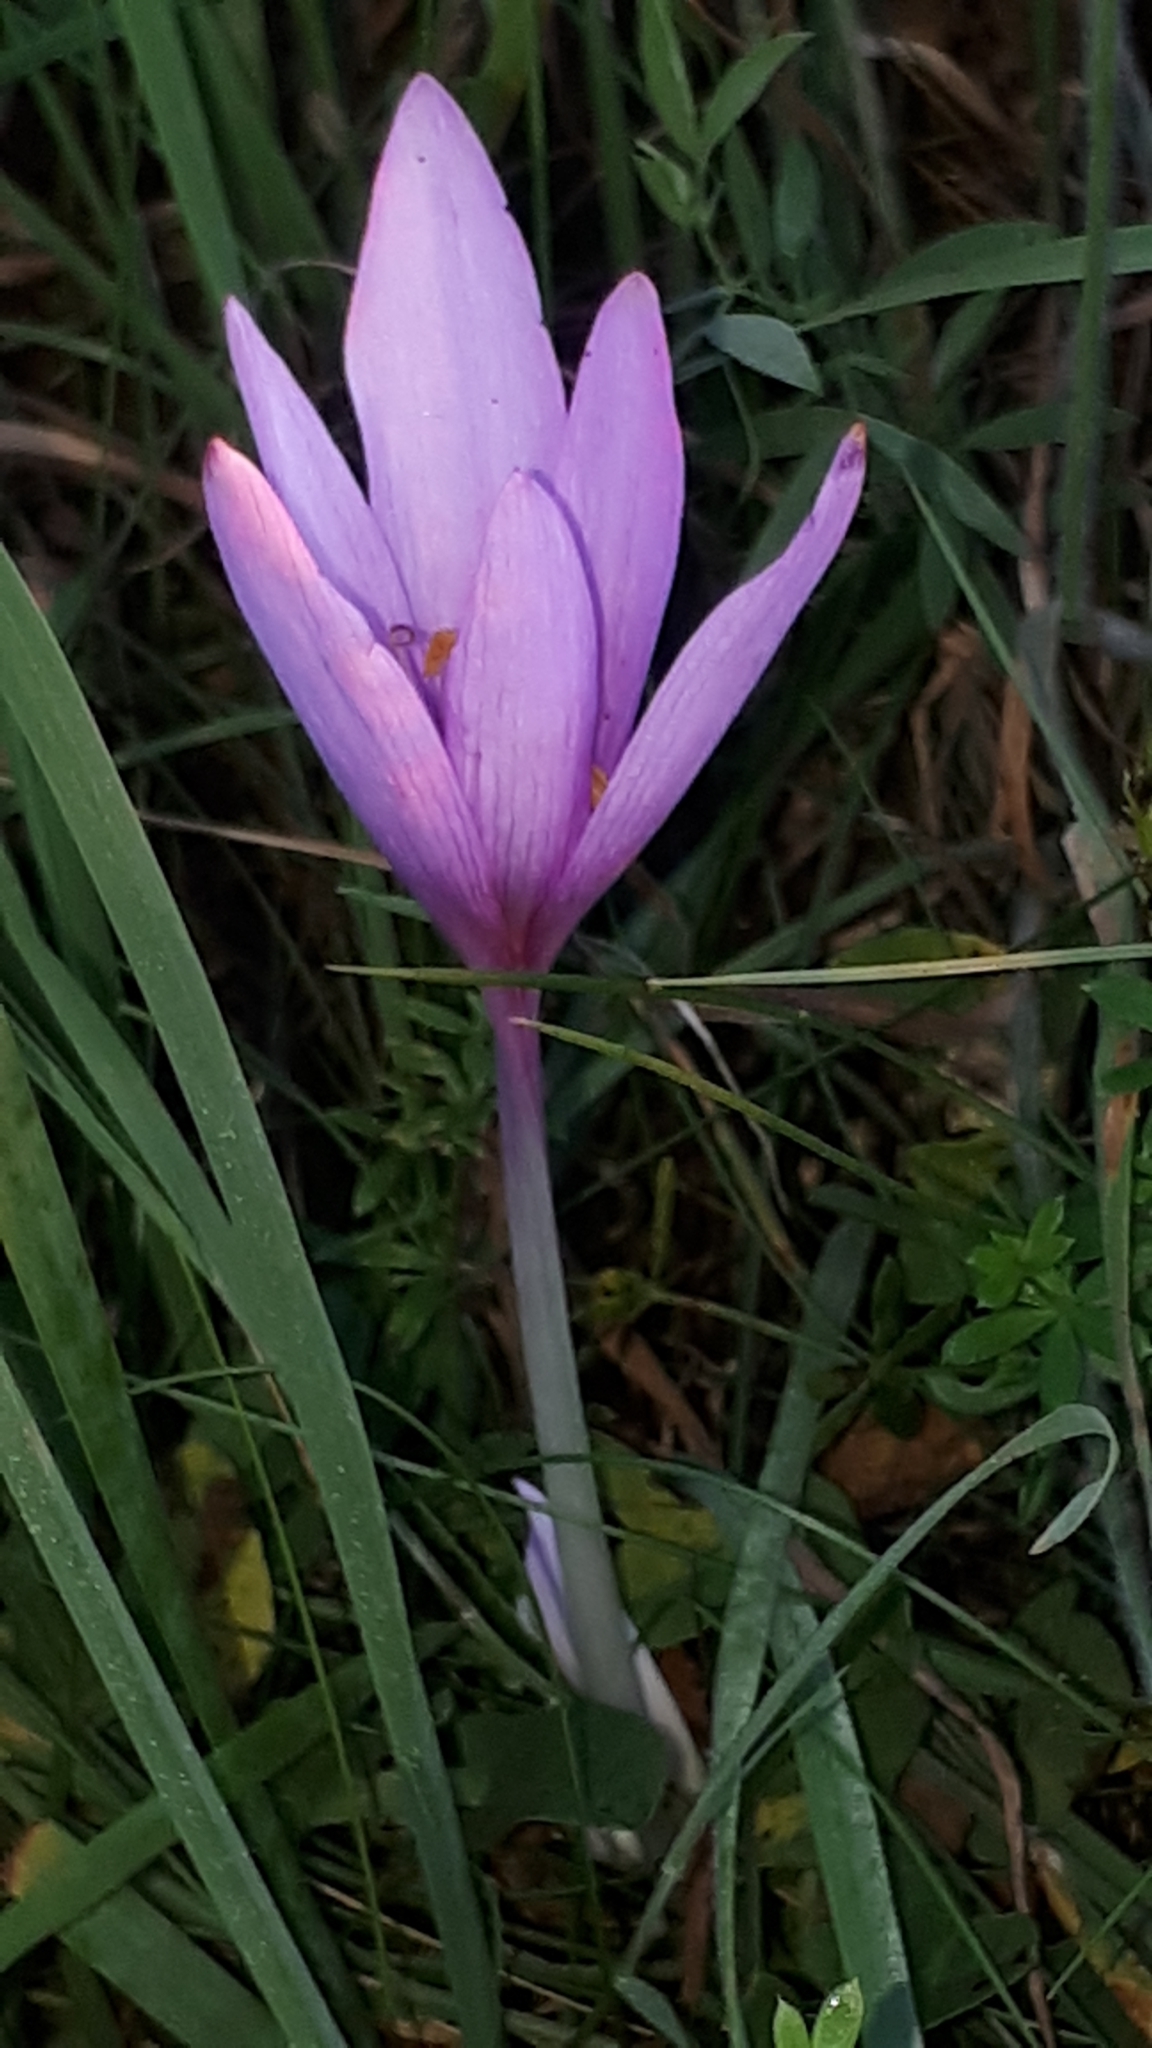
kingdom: Plantae
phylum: Tracheophyta
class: Liliopsida
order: Liliales
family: Colchicaceae
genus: Colchicum
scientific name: Colchicum autumnale
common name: Autumn crocus
